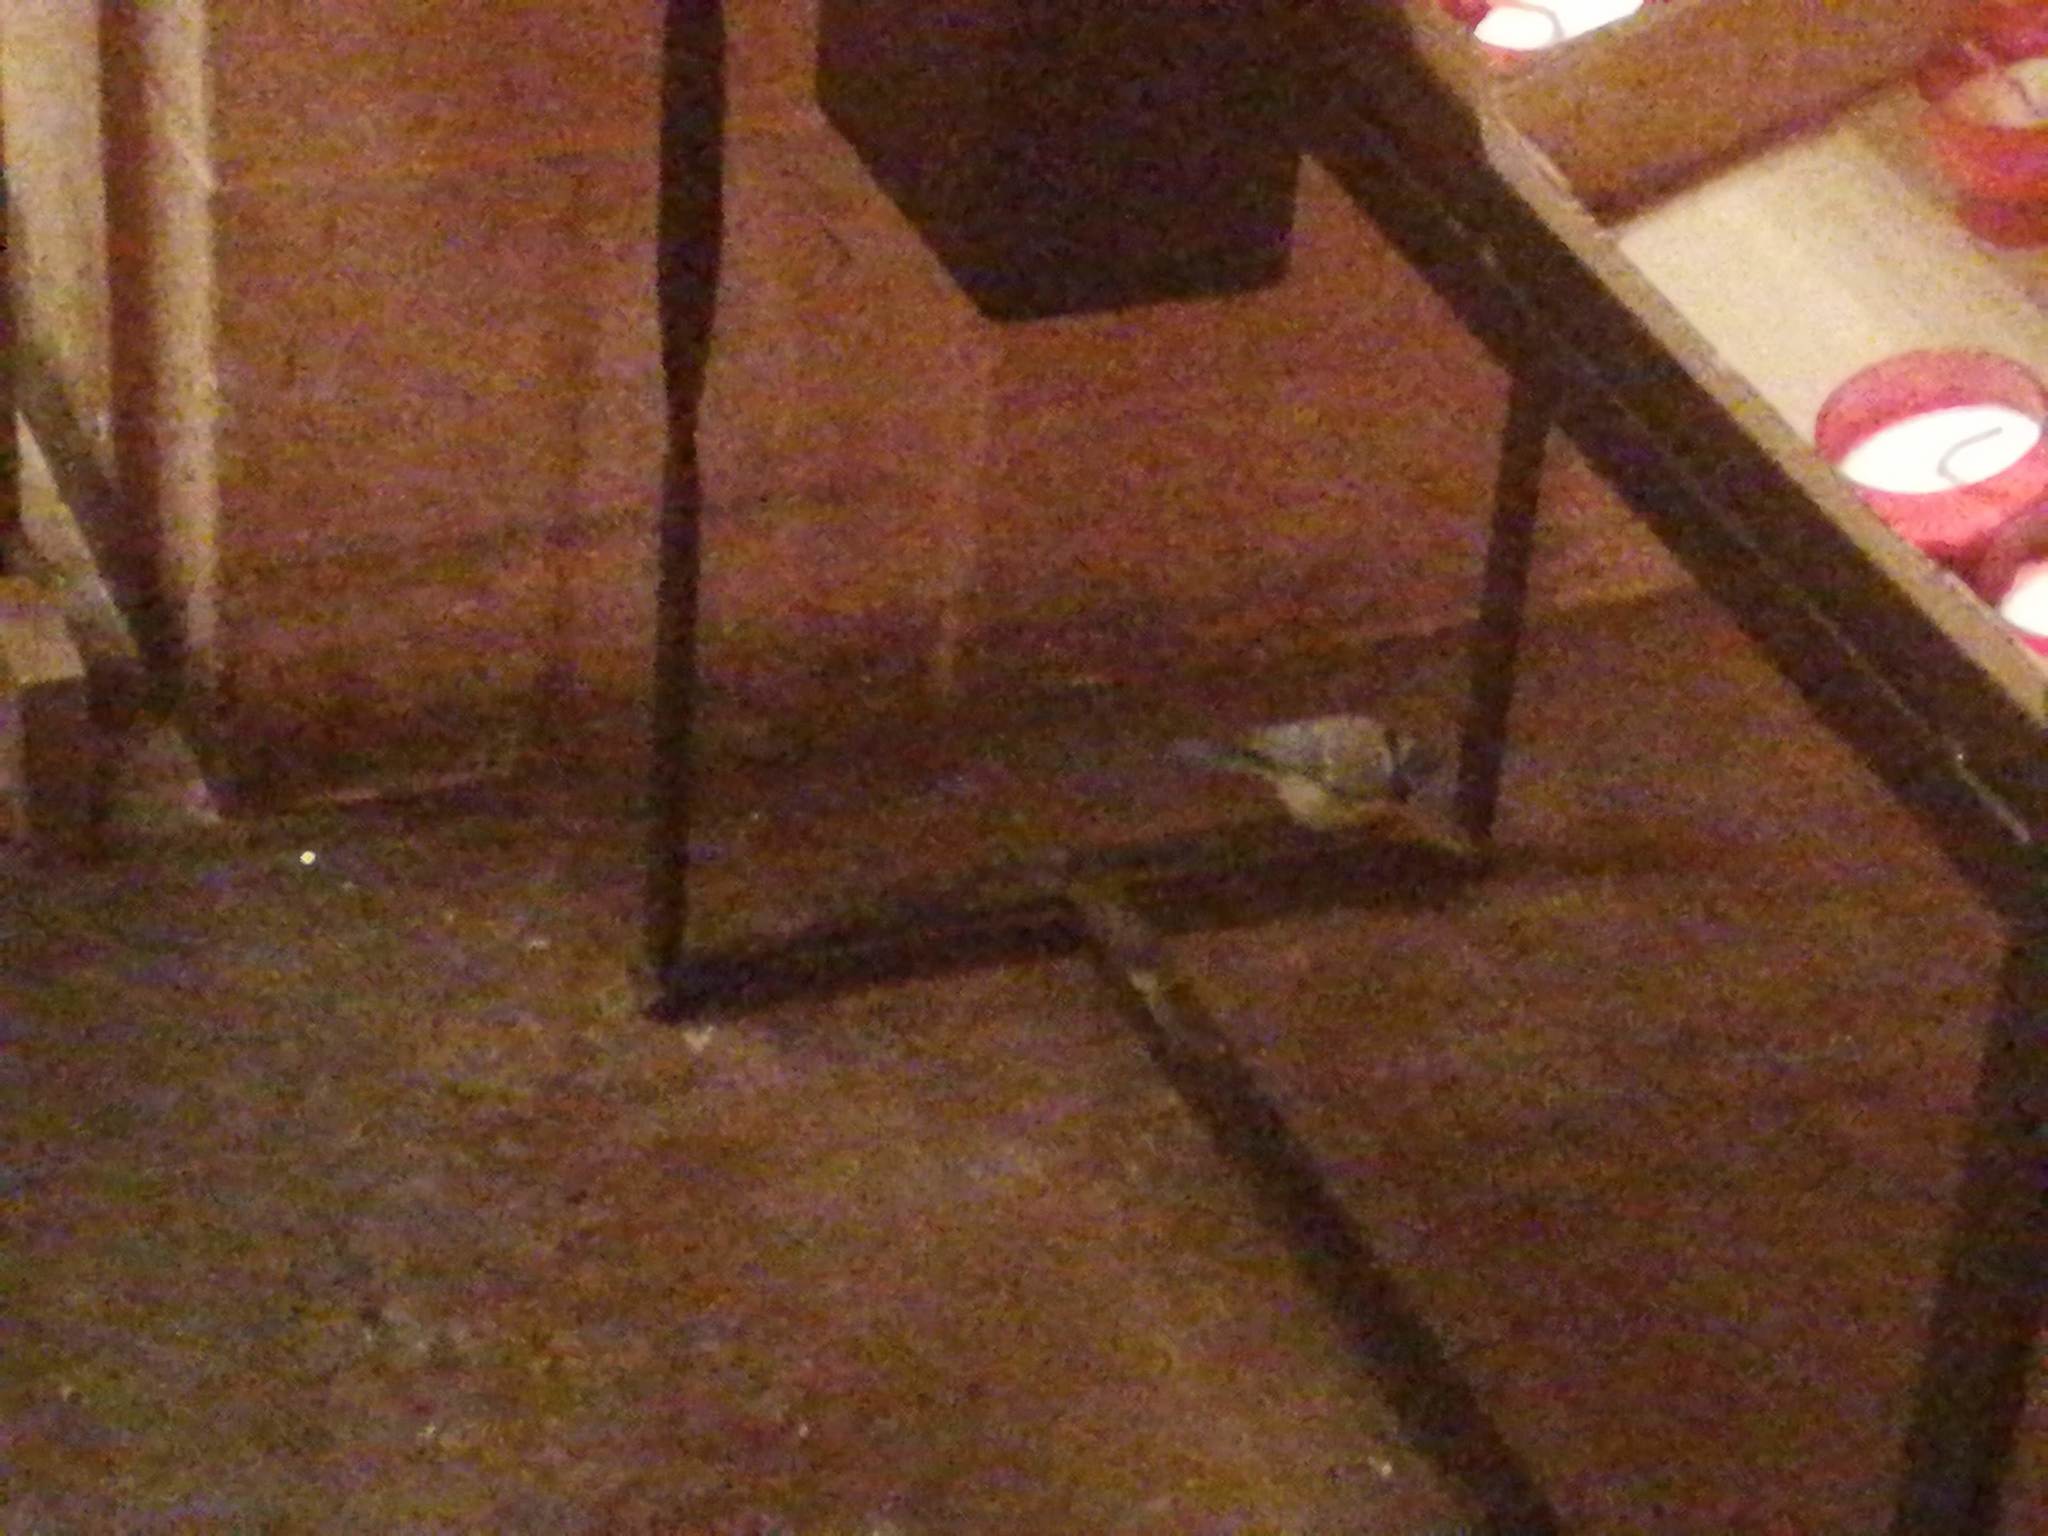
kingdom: Animalia
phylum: Chordata
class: Aves
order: Passeriformes
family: Paridae
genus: Cyanistes
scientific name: Cyanistes caeruleus
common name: Eurasian blue tit
